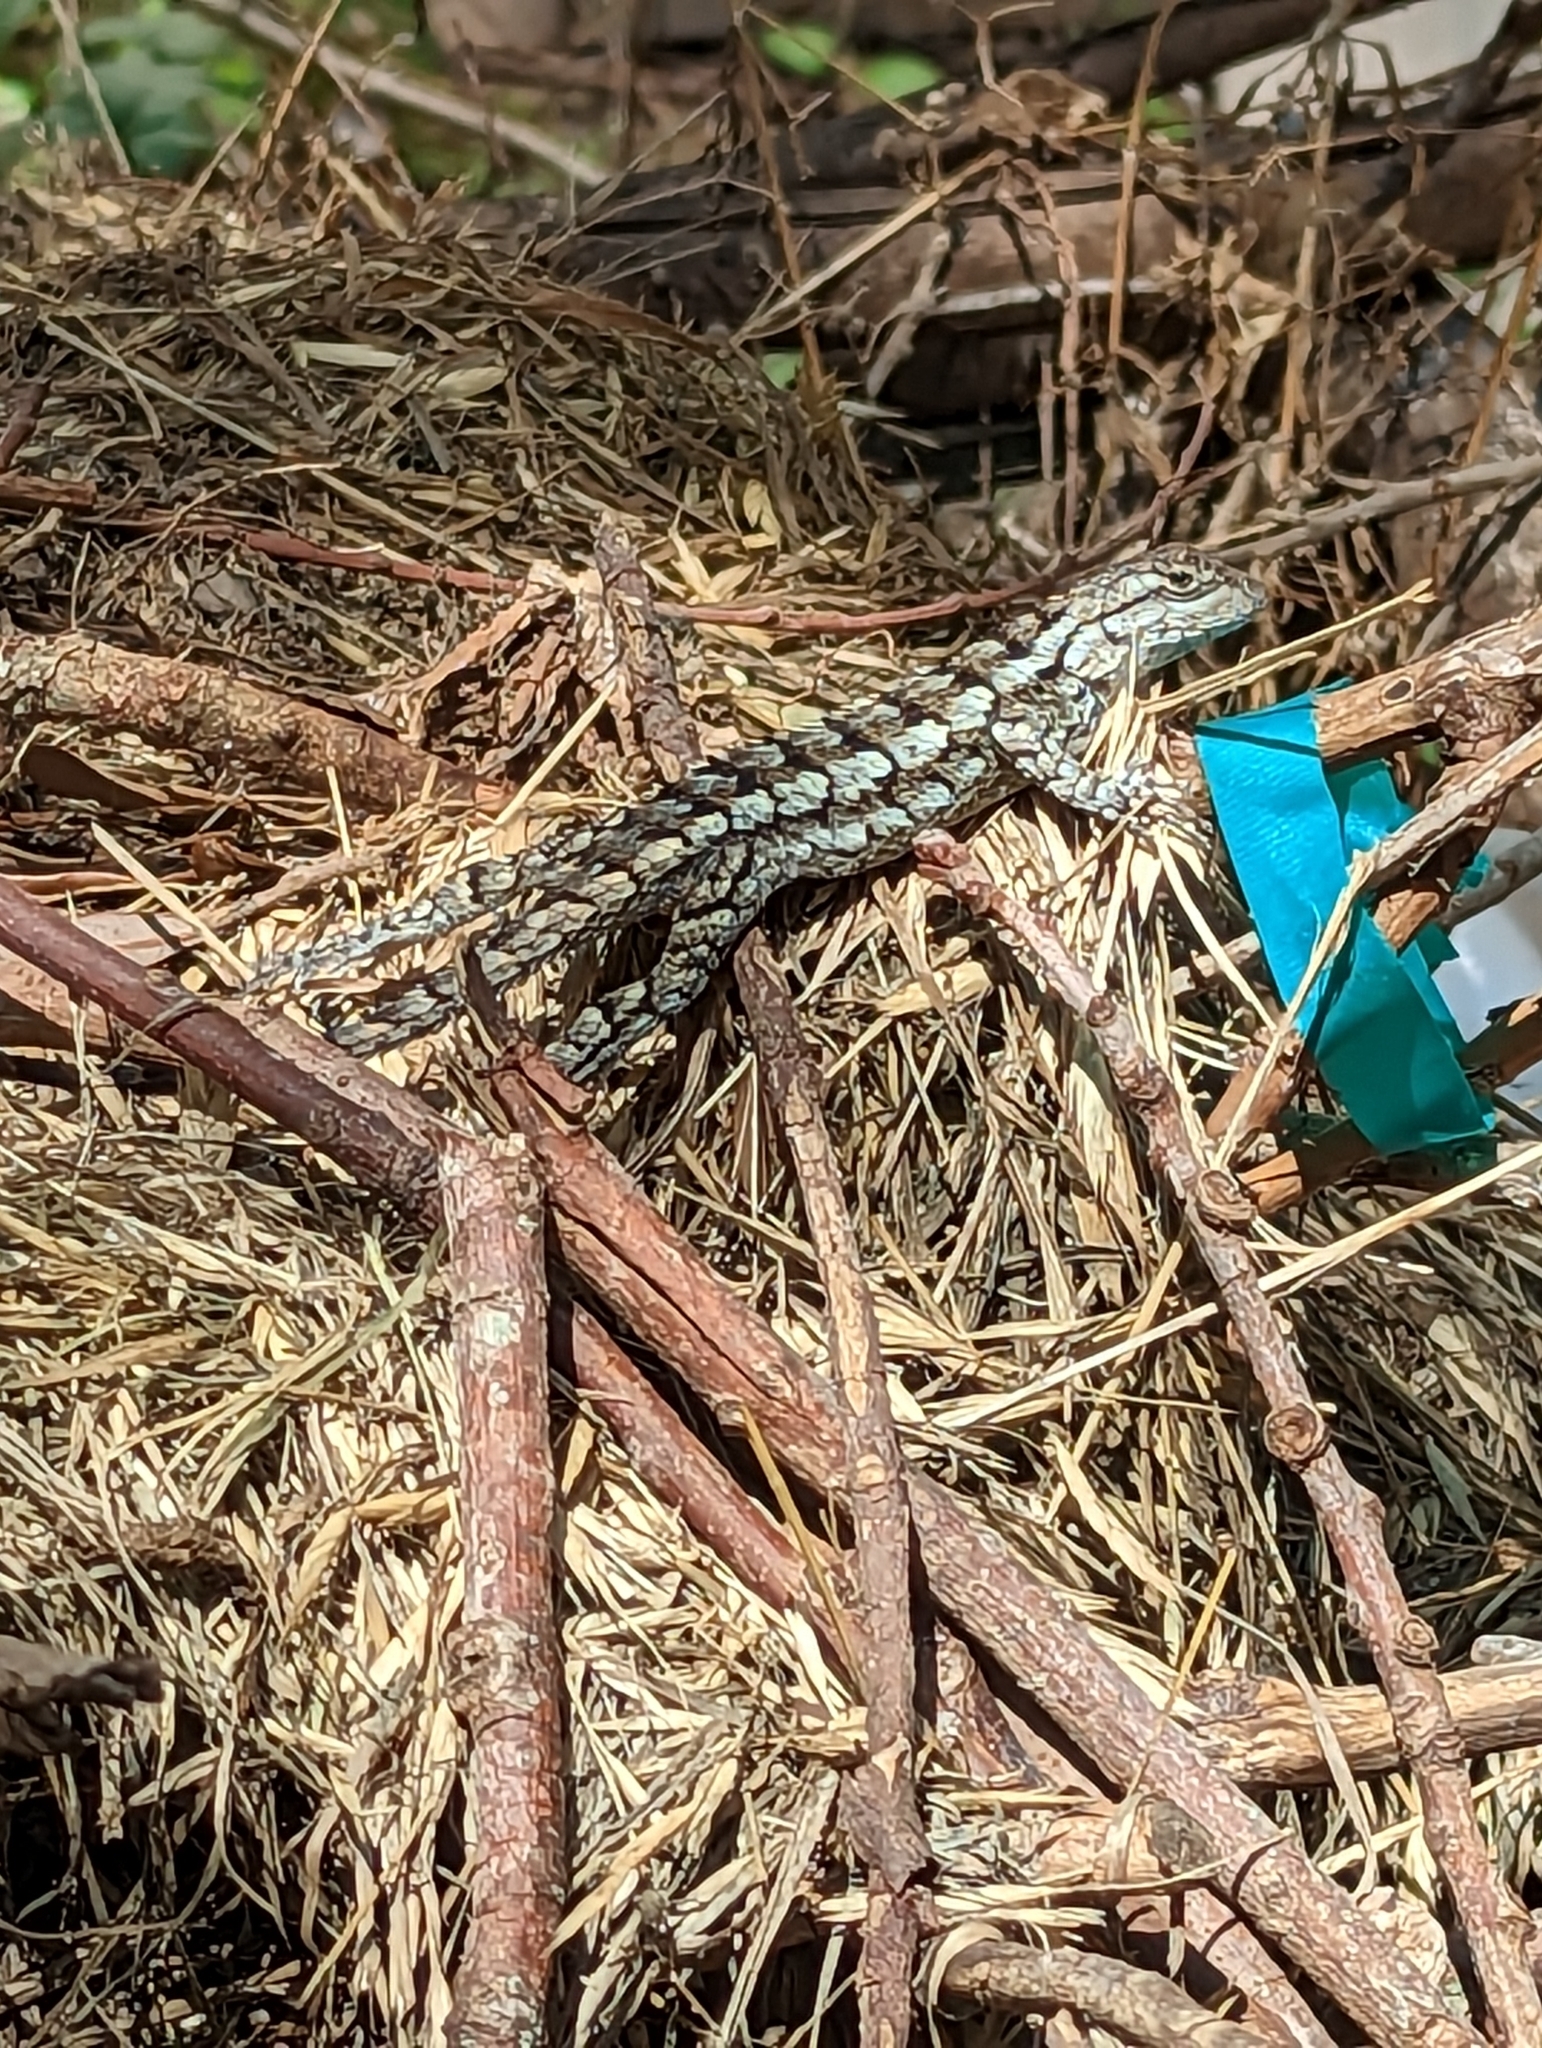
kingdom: Animalia
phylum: Chordata
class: Squamata
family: Phrynosomatidae
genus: Sceloporus
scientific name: Sceloporus olivaceus
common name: Texas spiny lizard
